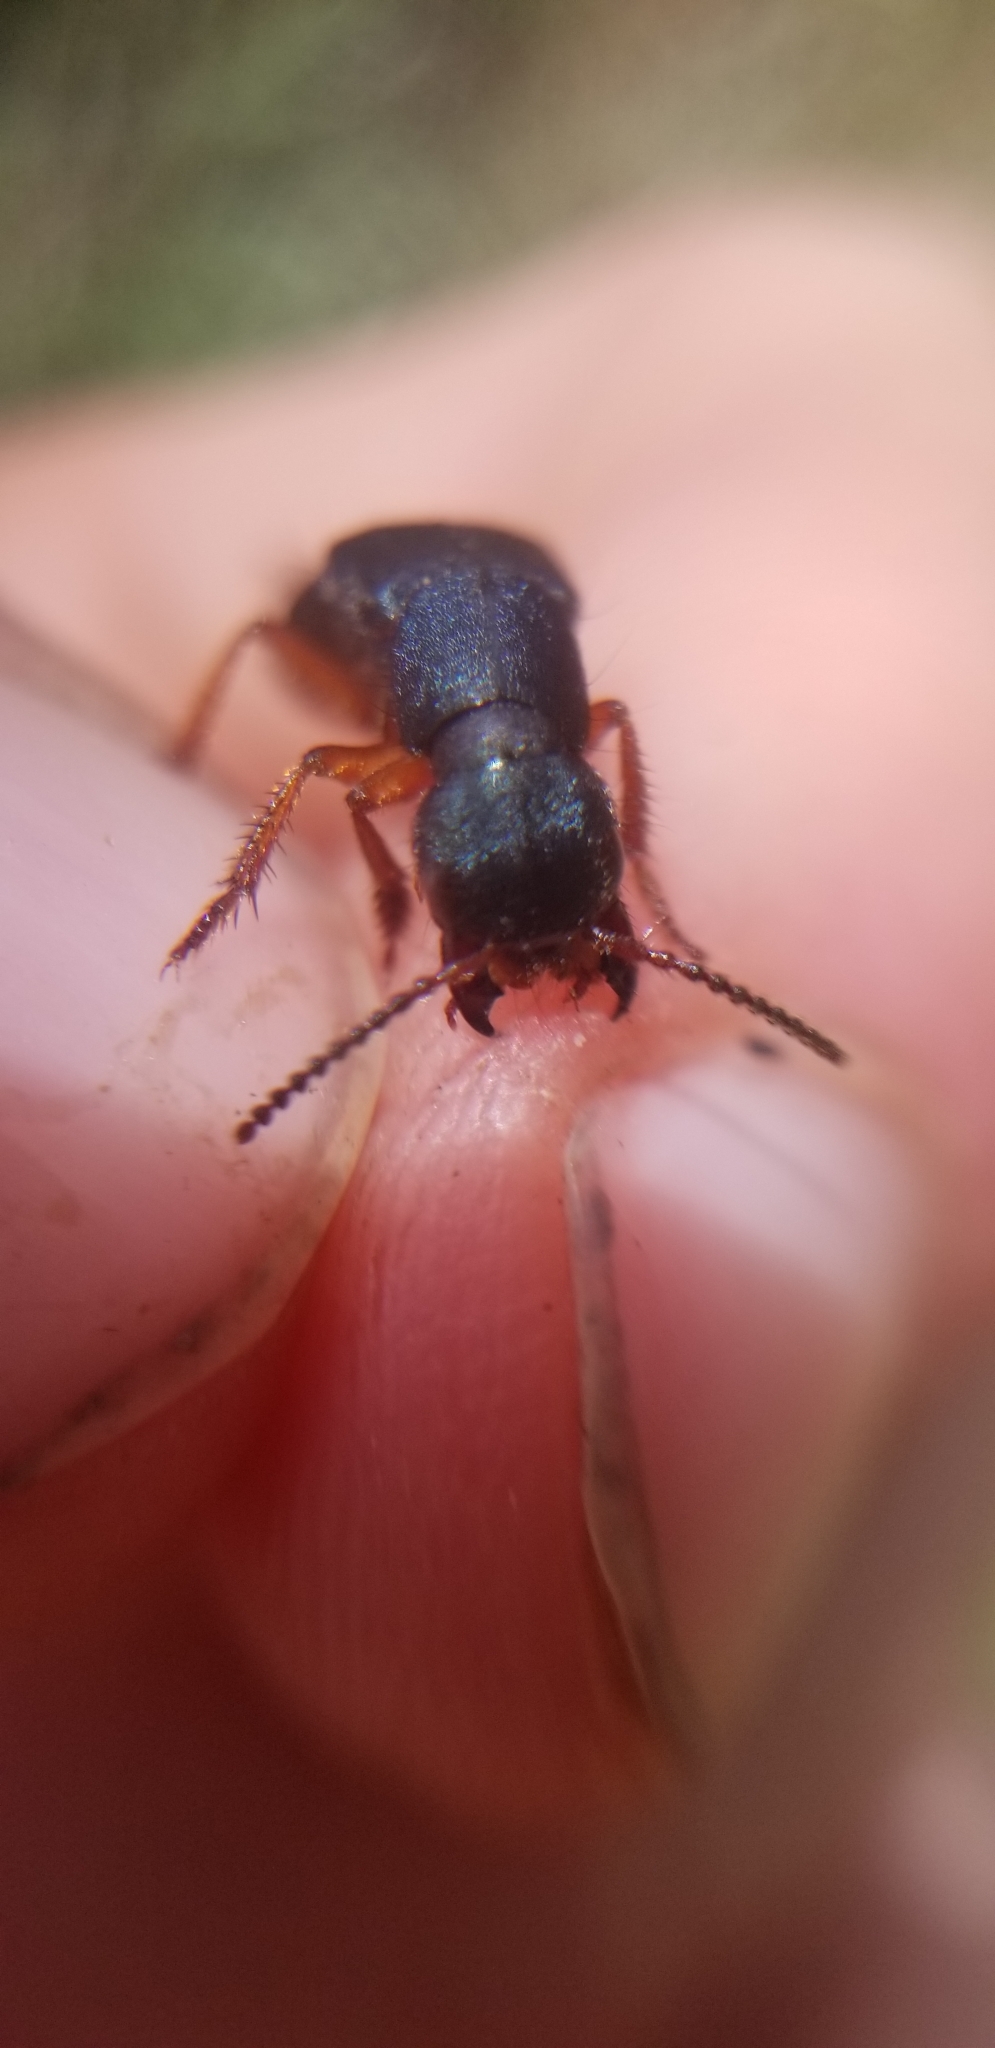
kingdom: Animalia
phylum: Arthropoda
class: Insecta
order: Coleoptera
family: Staphylinidae
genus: Dinothenarus
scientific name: Dinothenarus saphyrinus
